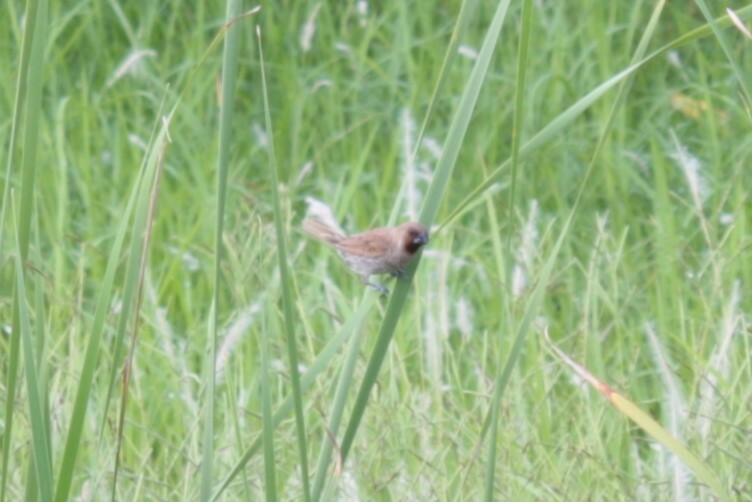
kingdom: Animalia
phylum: Chordata
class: Aves
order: Passeriformes
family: Estrildidae
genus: Lonchura
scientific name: Lonchura punctulata
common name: Scaly-breasted munia
